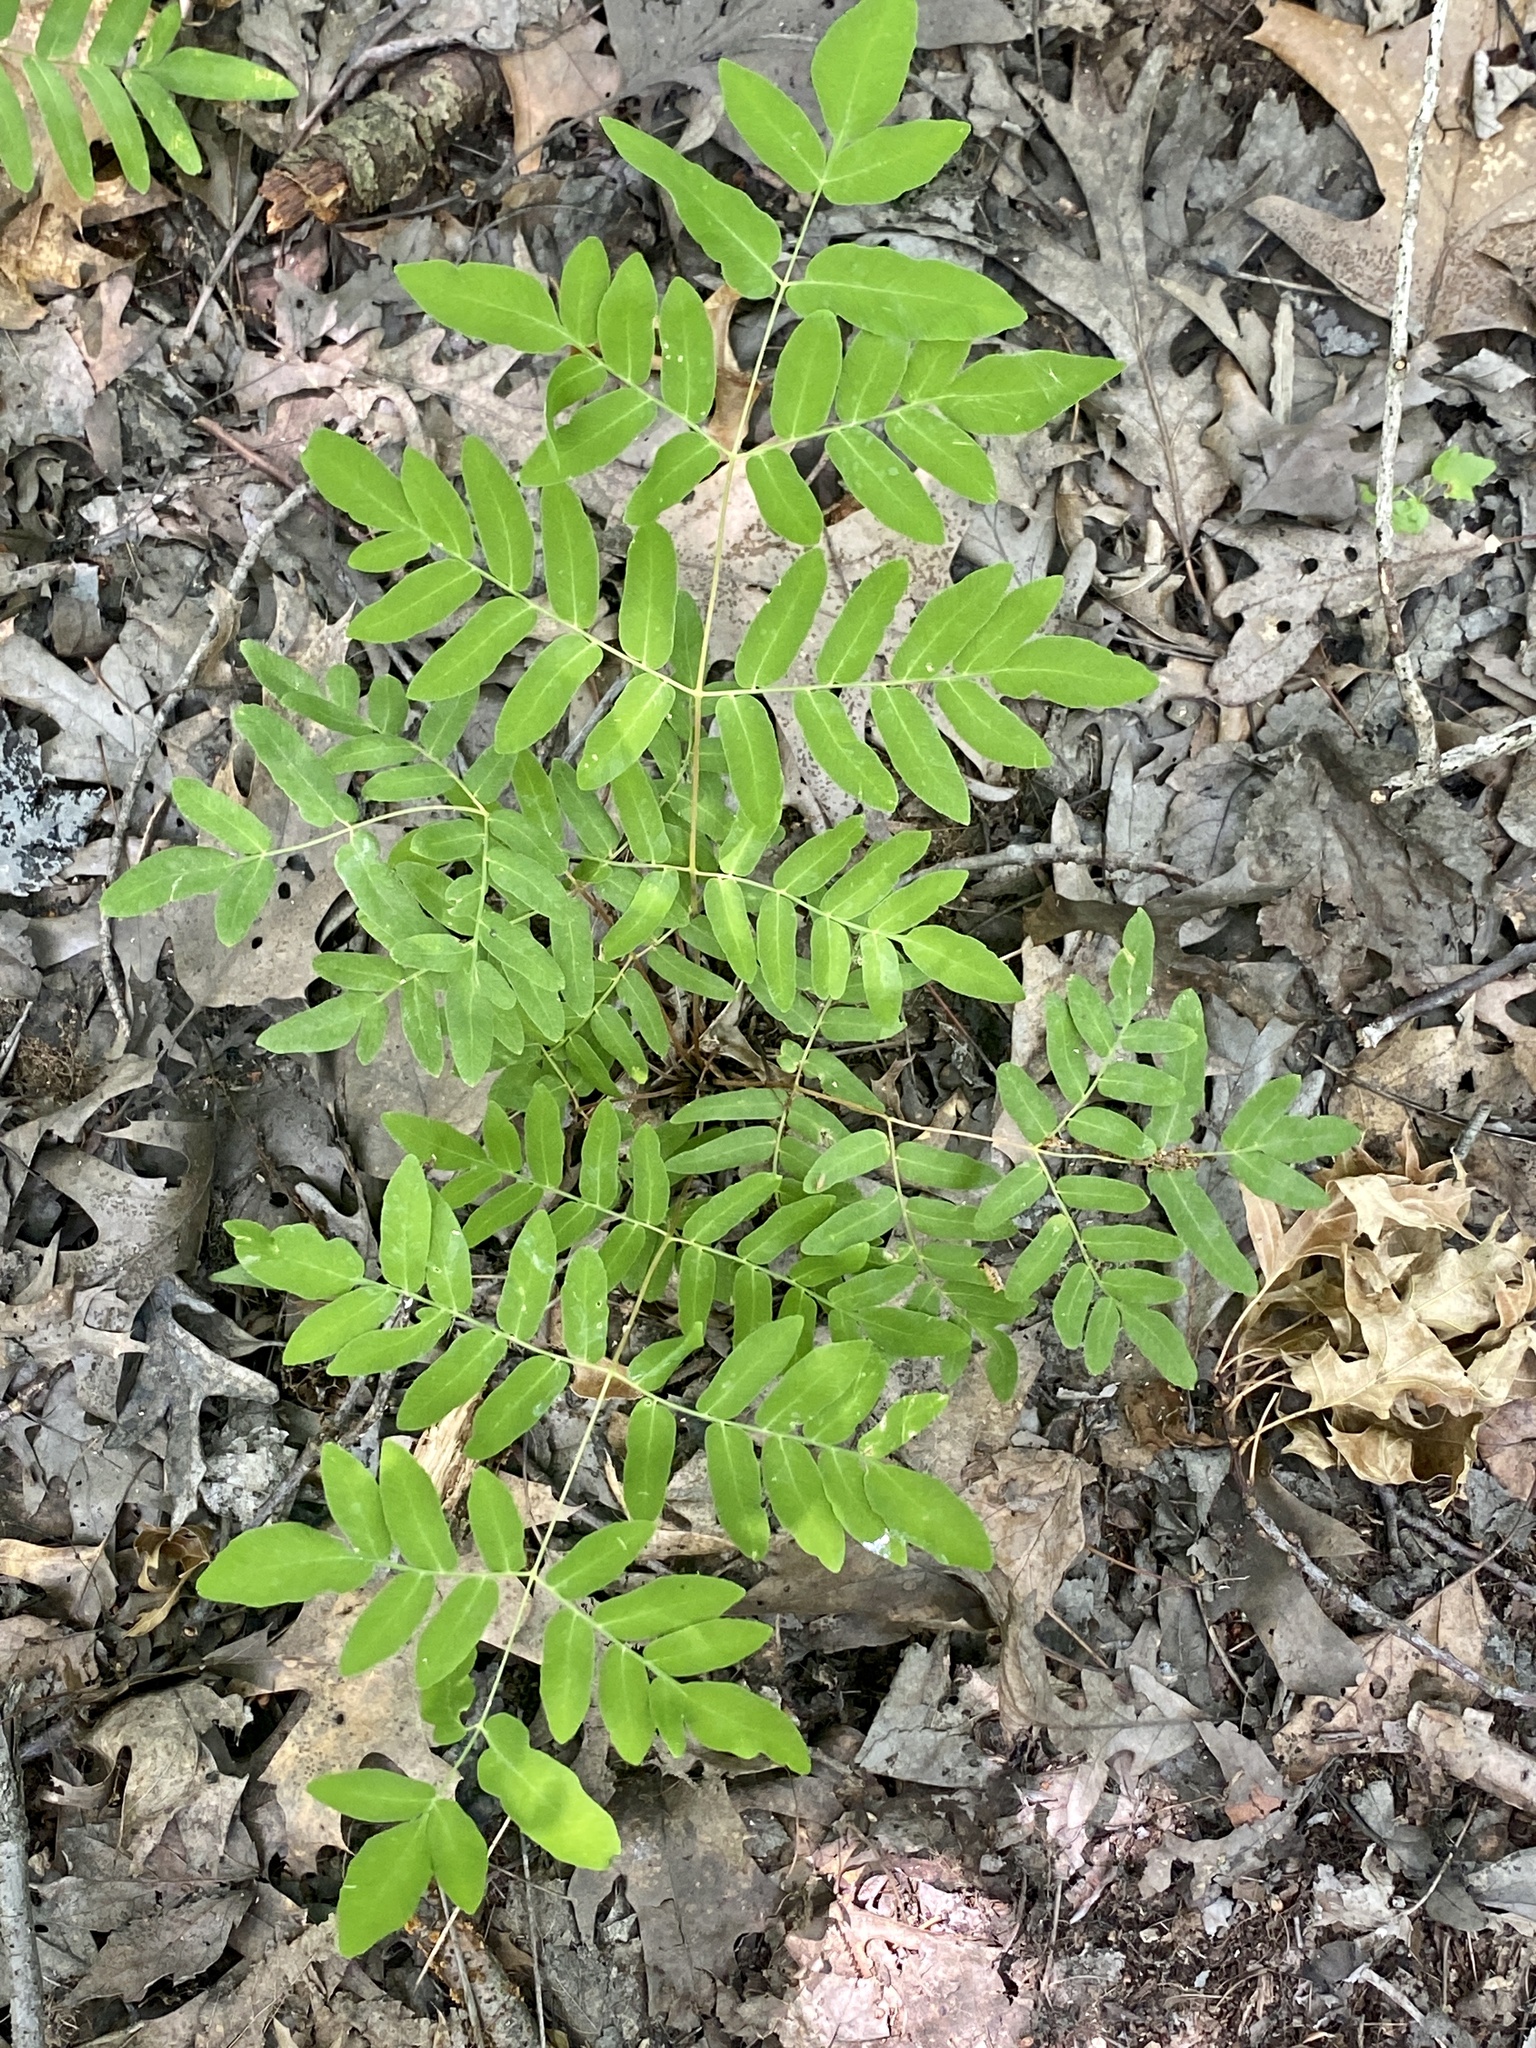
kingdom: Plantae
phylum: Tracheophyta
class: Polypodiopsida
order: Osmundales
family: Osmundaceae
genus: Osmunda
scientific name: Osmunda spectabilis
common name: American royal fern
